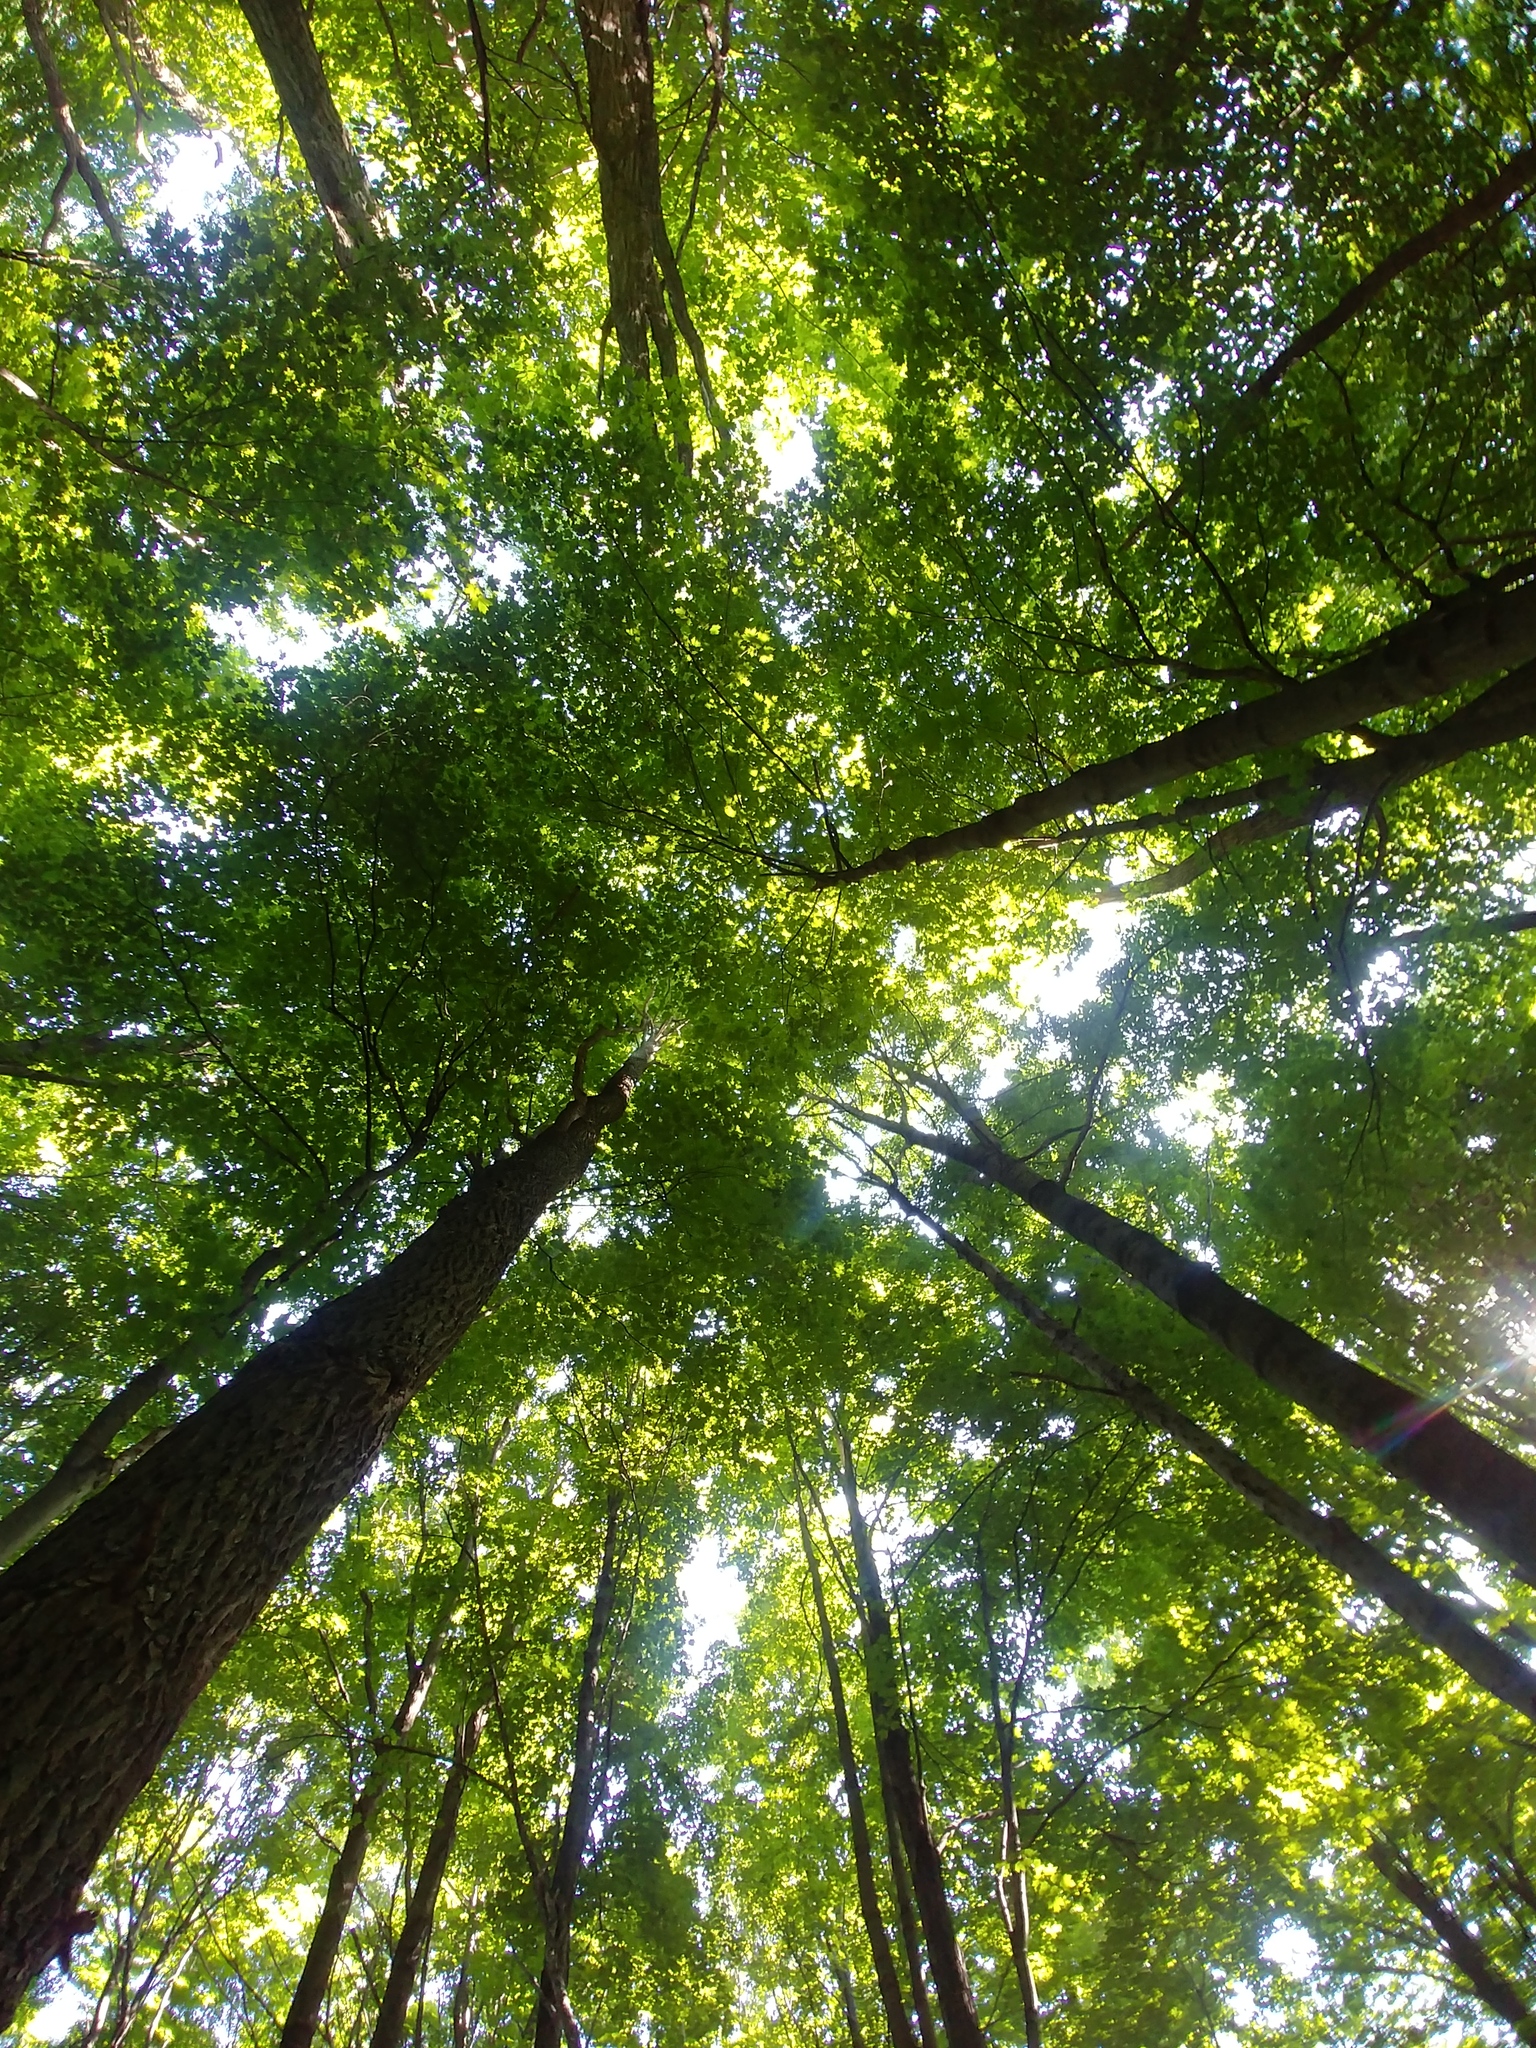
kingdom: Plantae
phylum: Tracheophyta
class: Magnoliopsida
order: Laurales
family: Lauraceae
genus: Sassafras
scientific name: Sassafras albidum
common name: Sassafras
